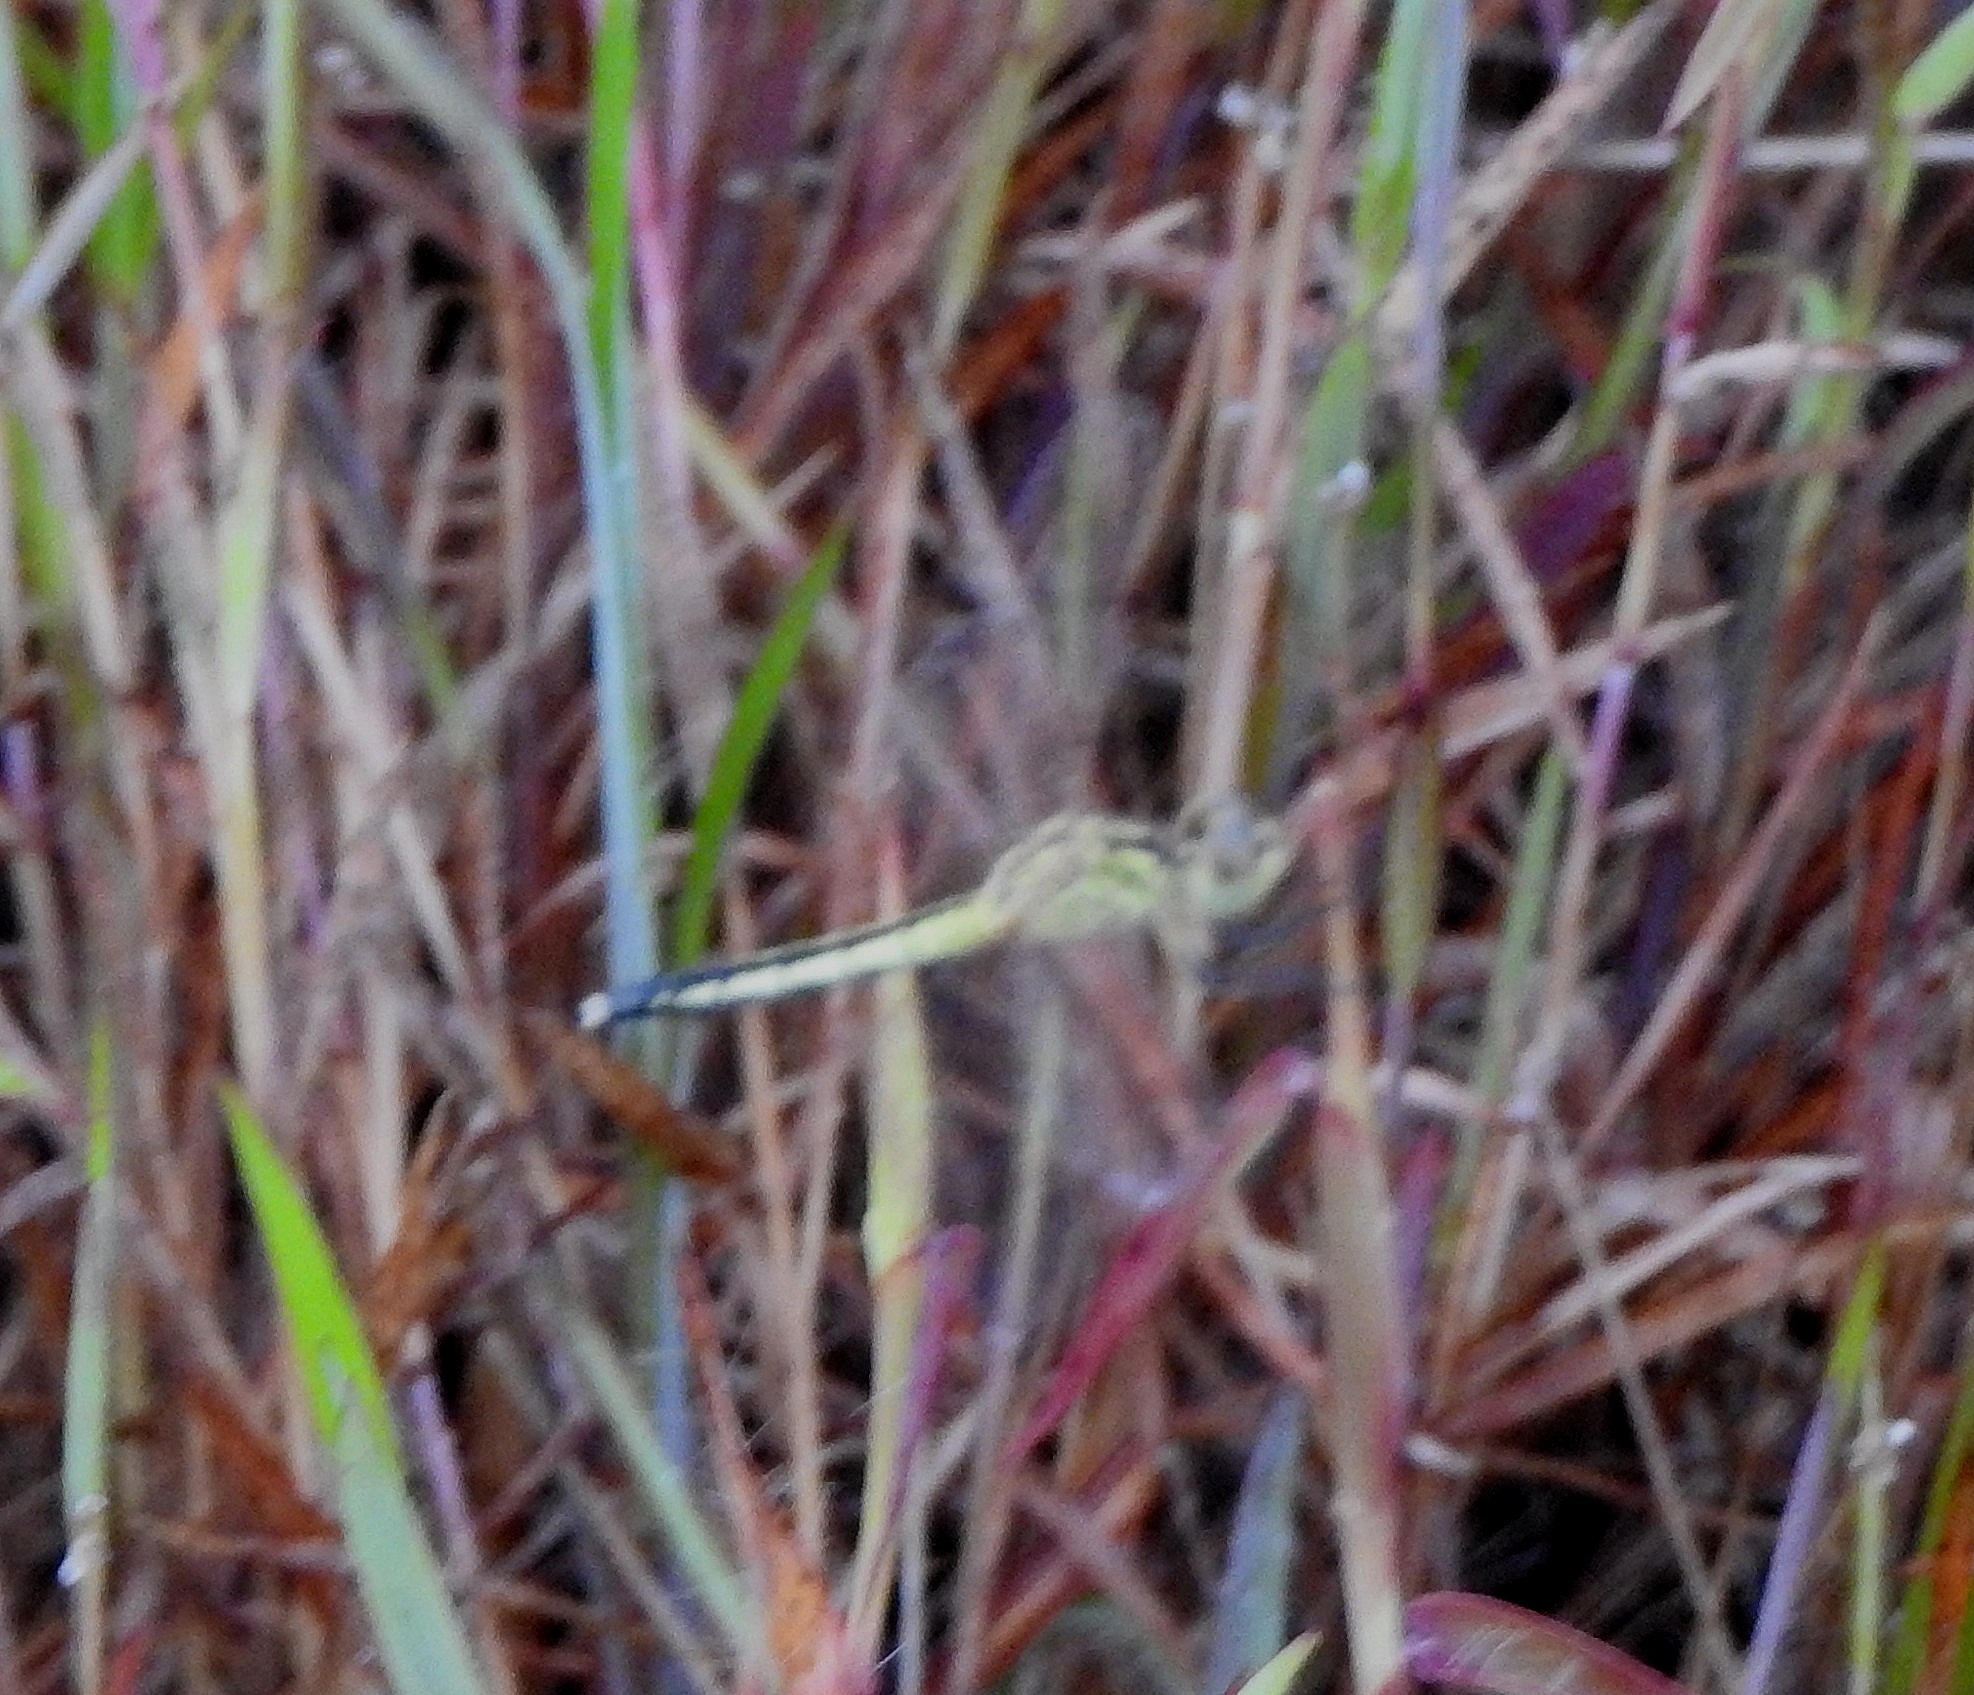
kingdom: Animalia
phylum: Arthropoda
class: Insecta
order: Odonata
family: Libellulidae
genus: Diplacodes
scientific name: Diplacodes nebulosa
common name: Black-tipped percher
